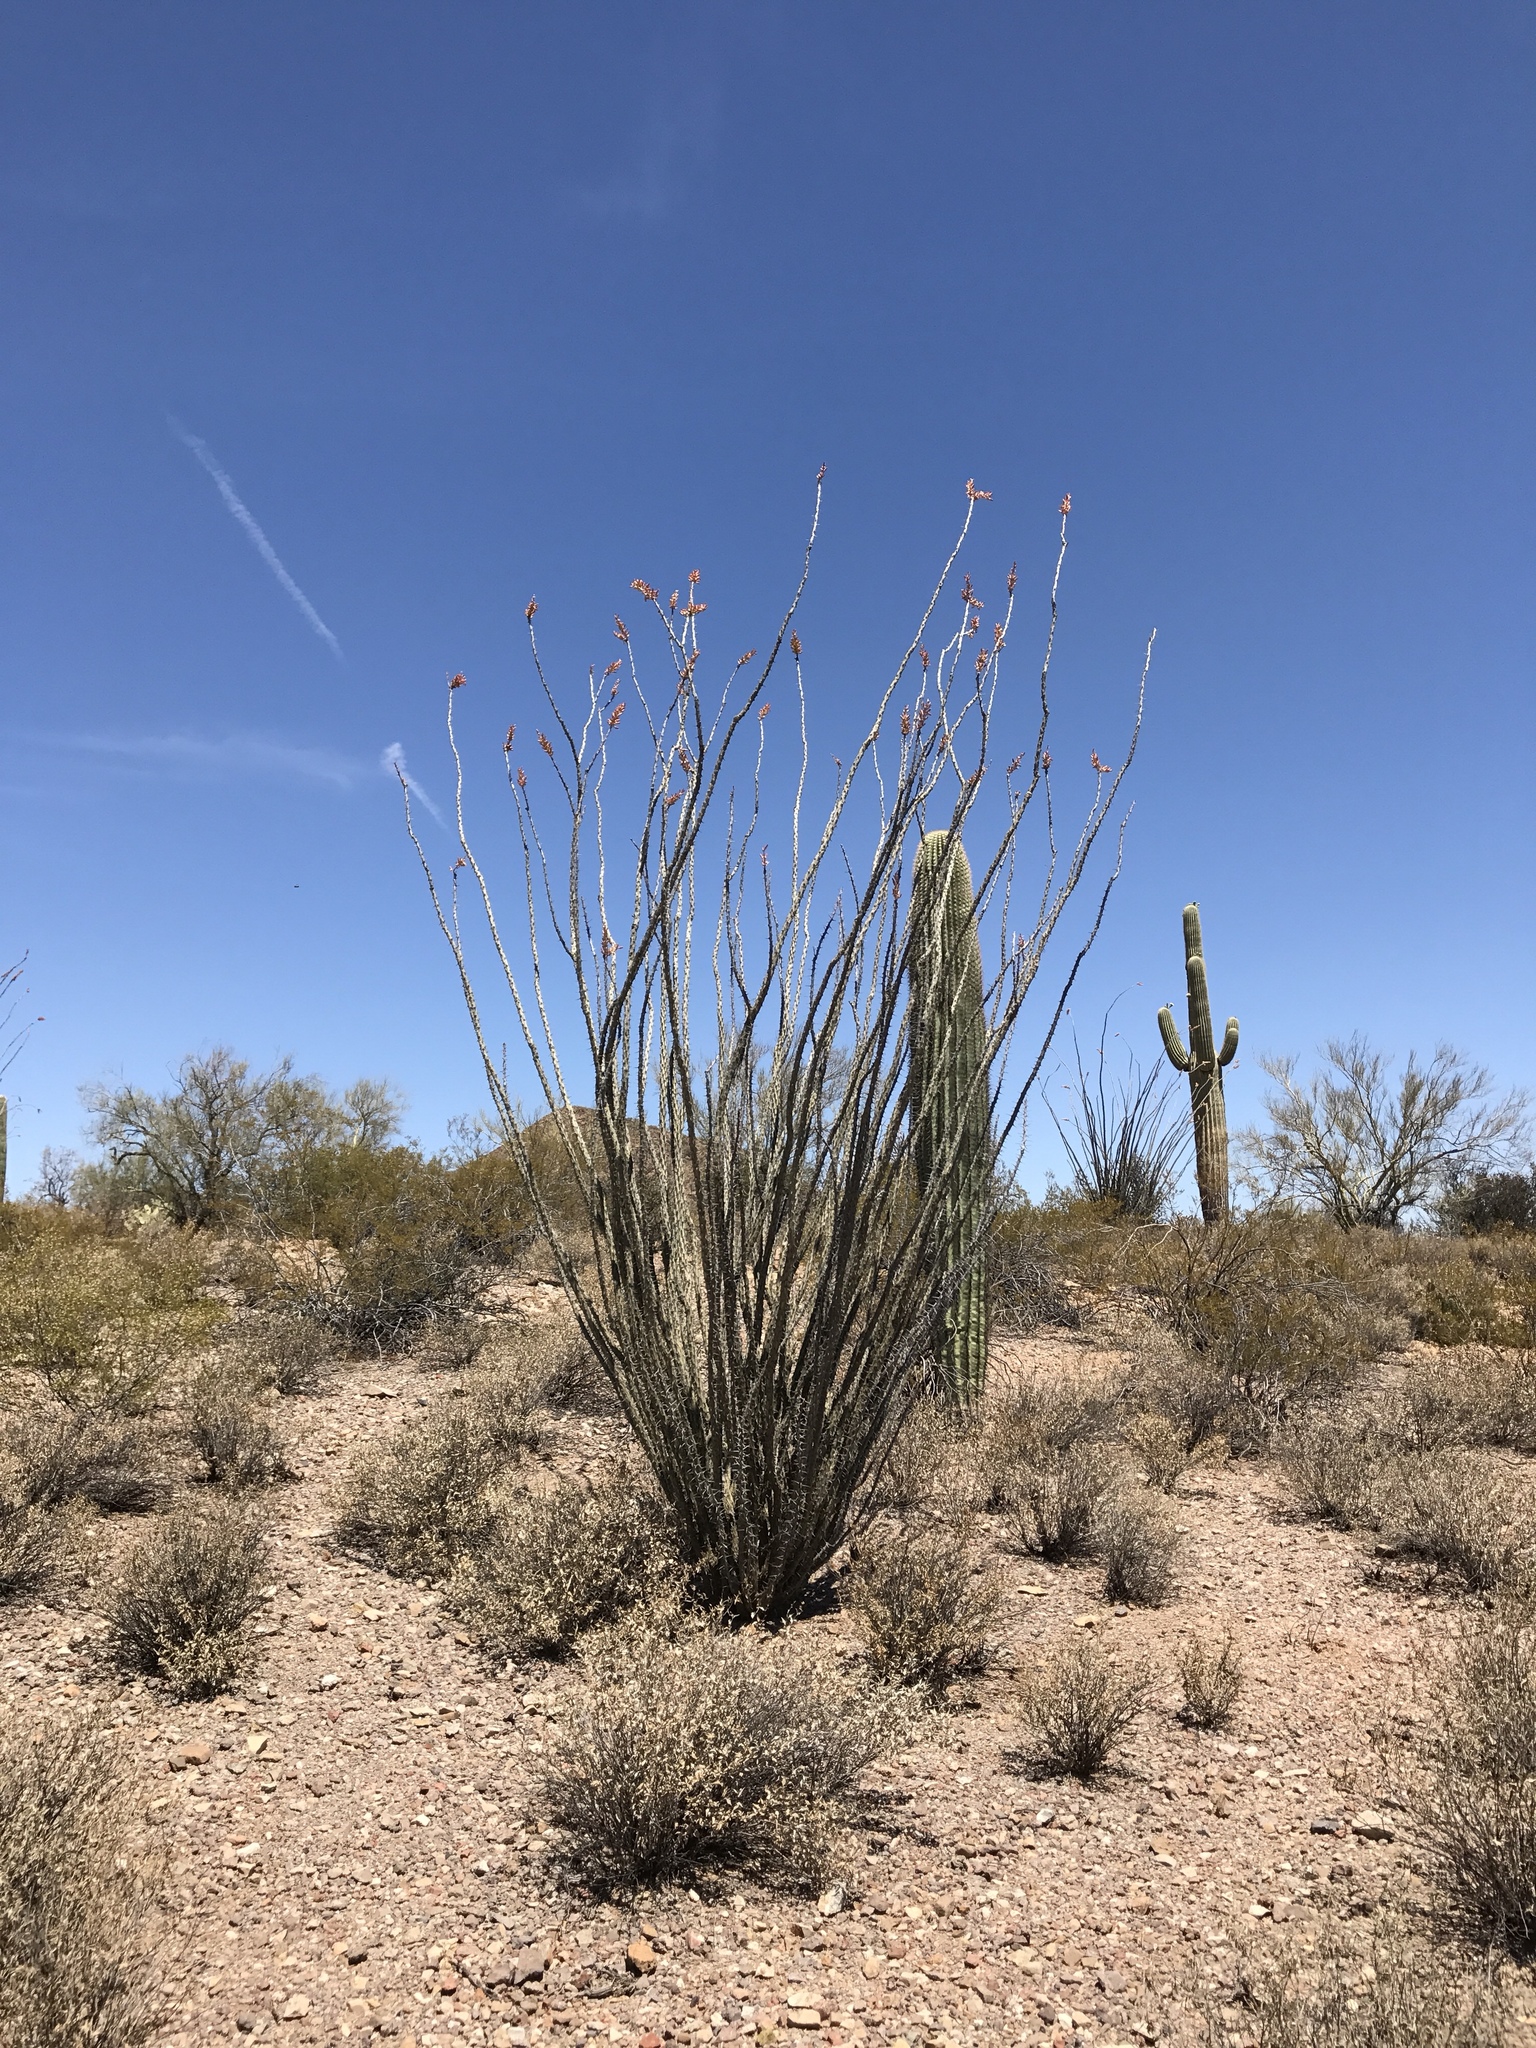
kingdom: Plantae
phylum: Tracheophyta
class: Magnoliopsida
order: Ericales
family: Fouquieriaceae
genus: Fouquieria
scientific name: Fouquieria splendens
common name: Vine-cactus
